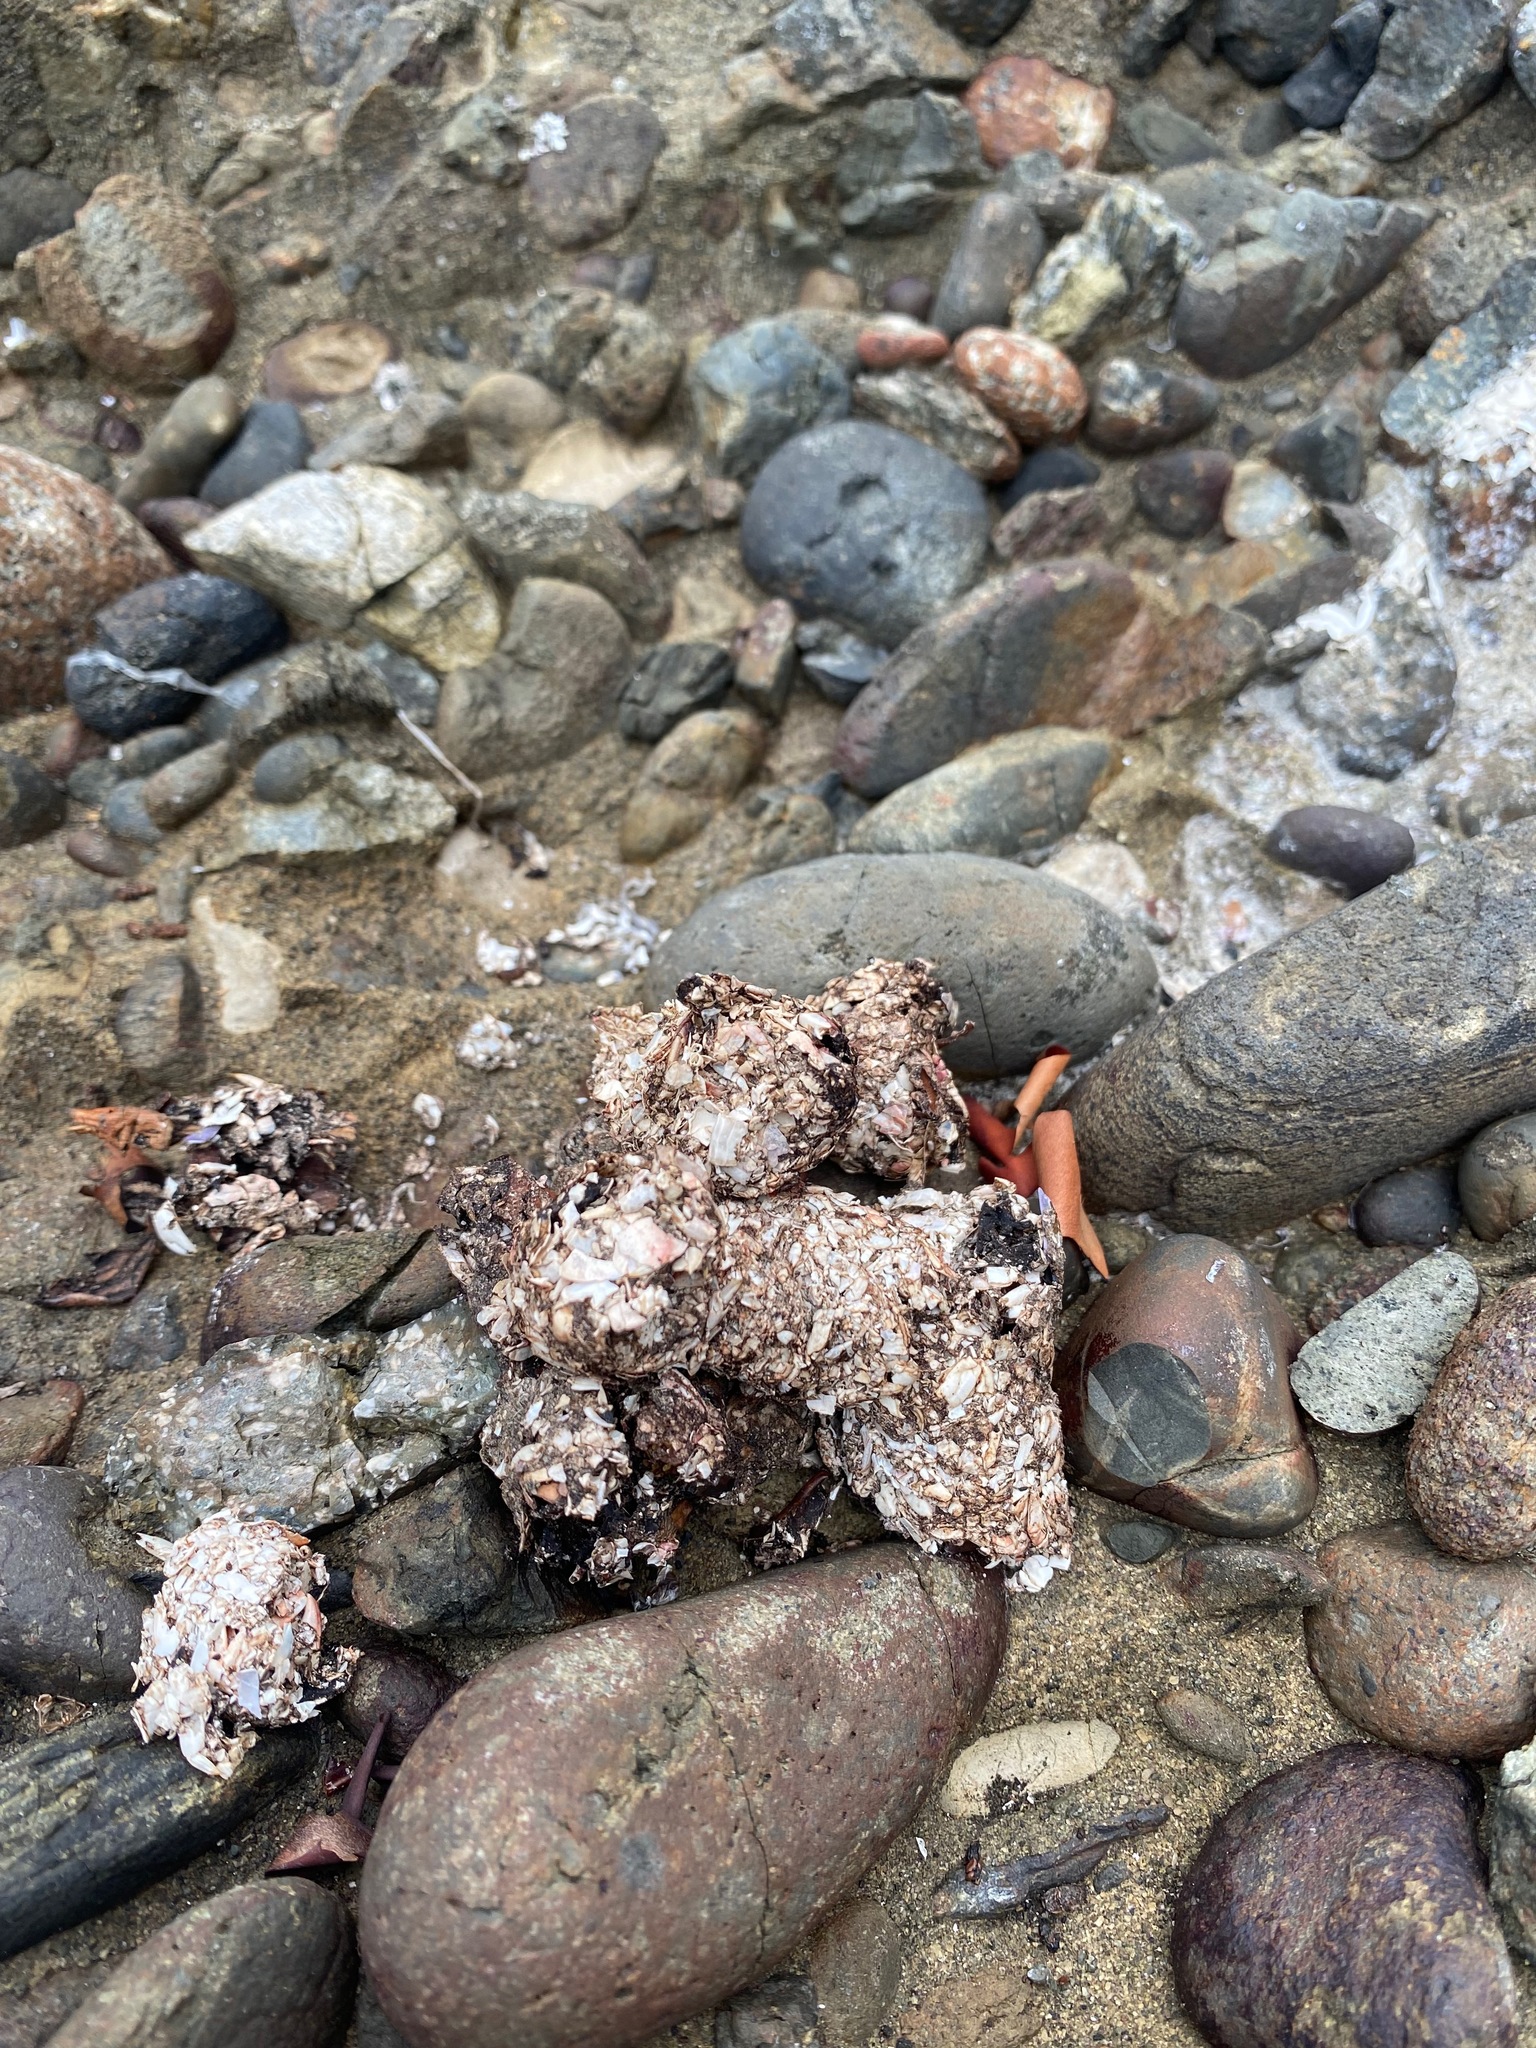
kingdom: Animalia
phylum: Chordata
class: Mammalia
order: Carnivora
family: Mustelidae
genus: Lontra
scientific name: Lontra canadensis
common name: North american river otter
